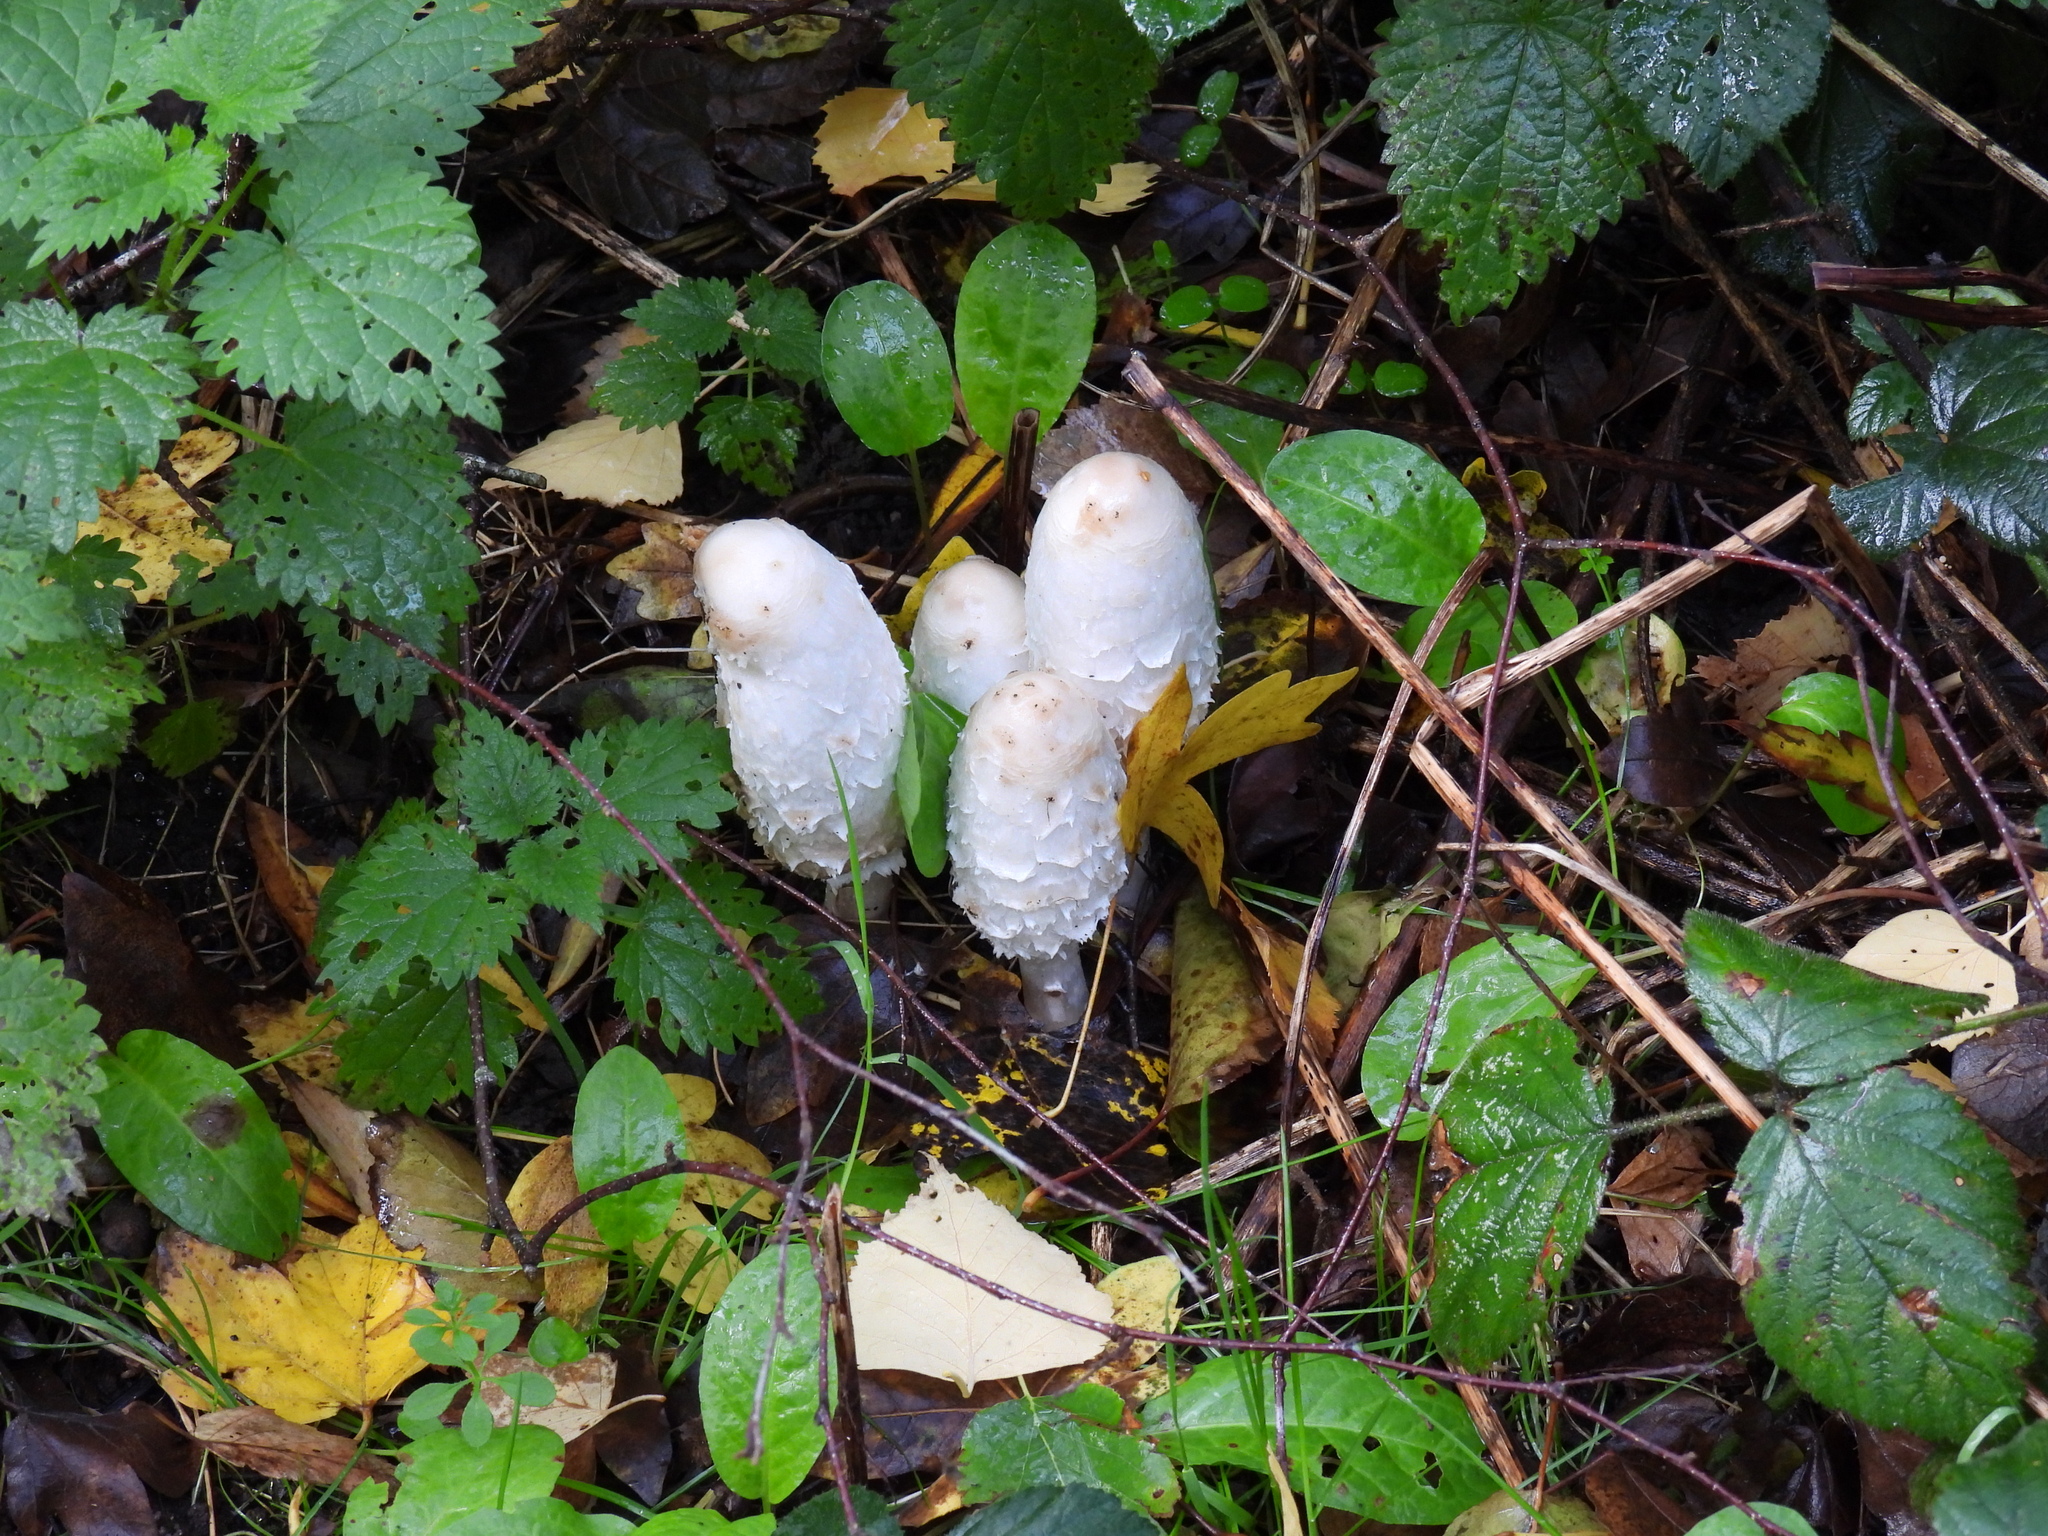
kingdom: Fungi
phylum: Basidiomycota
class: Agaricomycetes
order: Agaricales
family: Agaricaceae
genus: Coprinus
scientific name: Coprinus comatus
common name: Lawyer's wig
